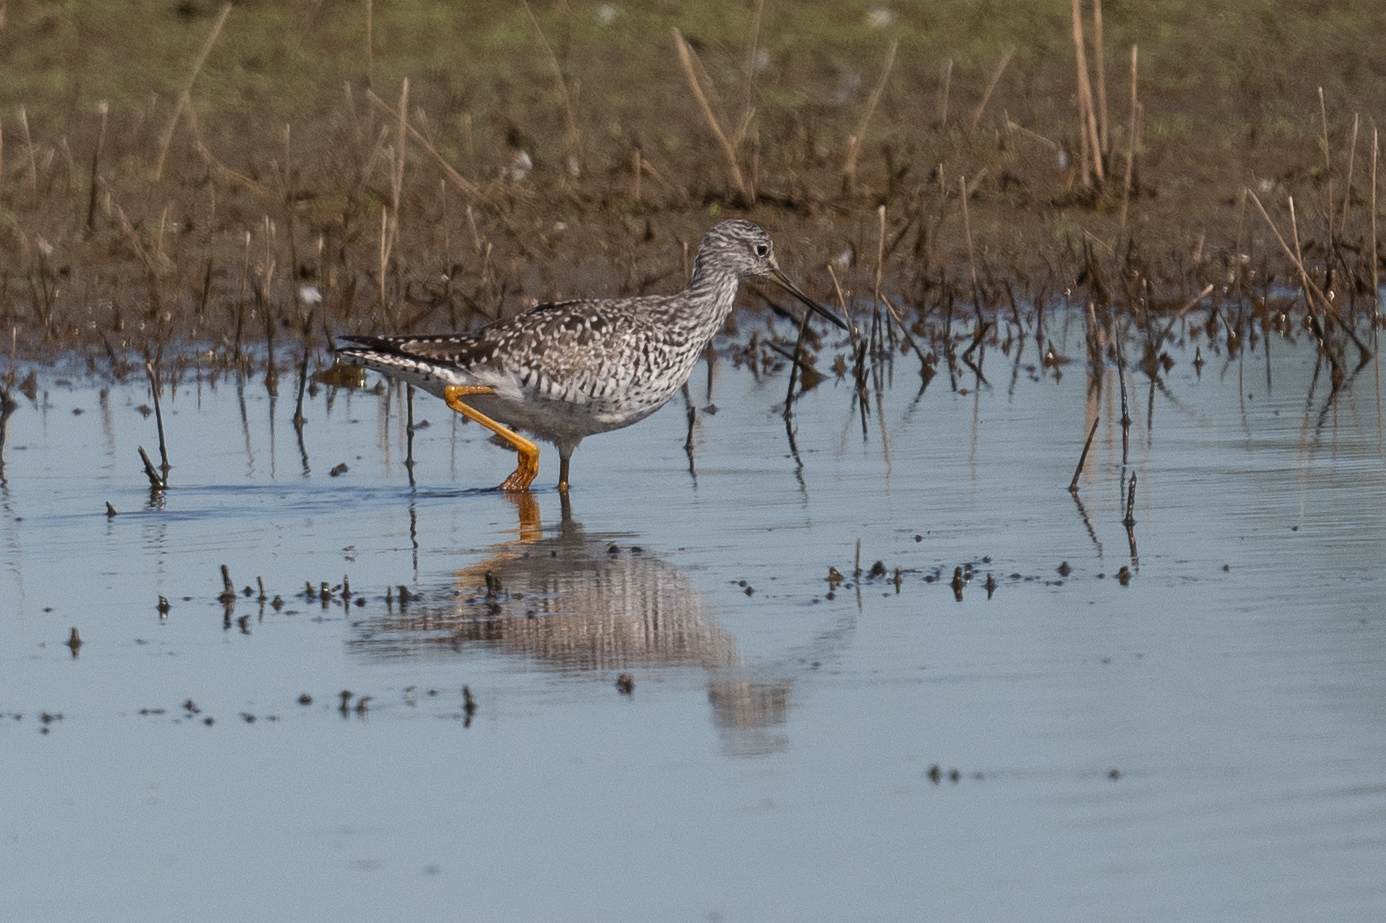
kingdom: Animalia
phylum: Chordata
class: Aves
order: Charadriiformes
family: Scolopacidae
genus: Tringa
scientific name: Tringa melanoleuca
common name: Greater yellowlegs
